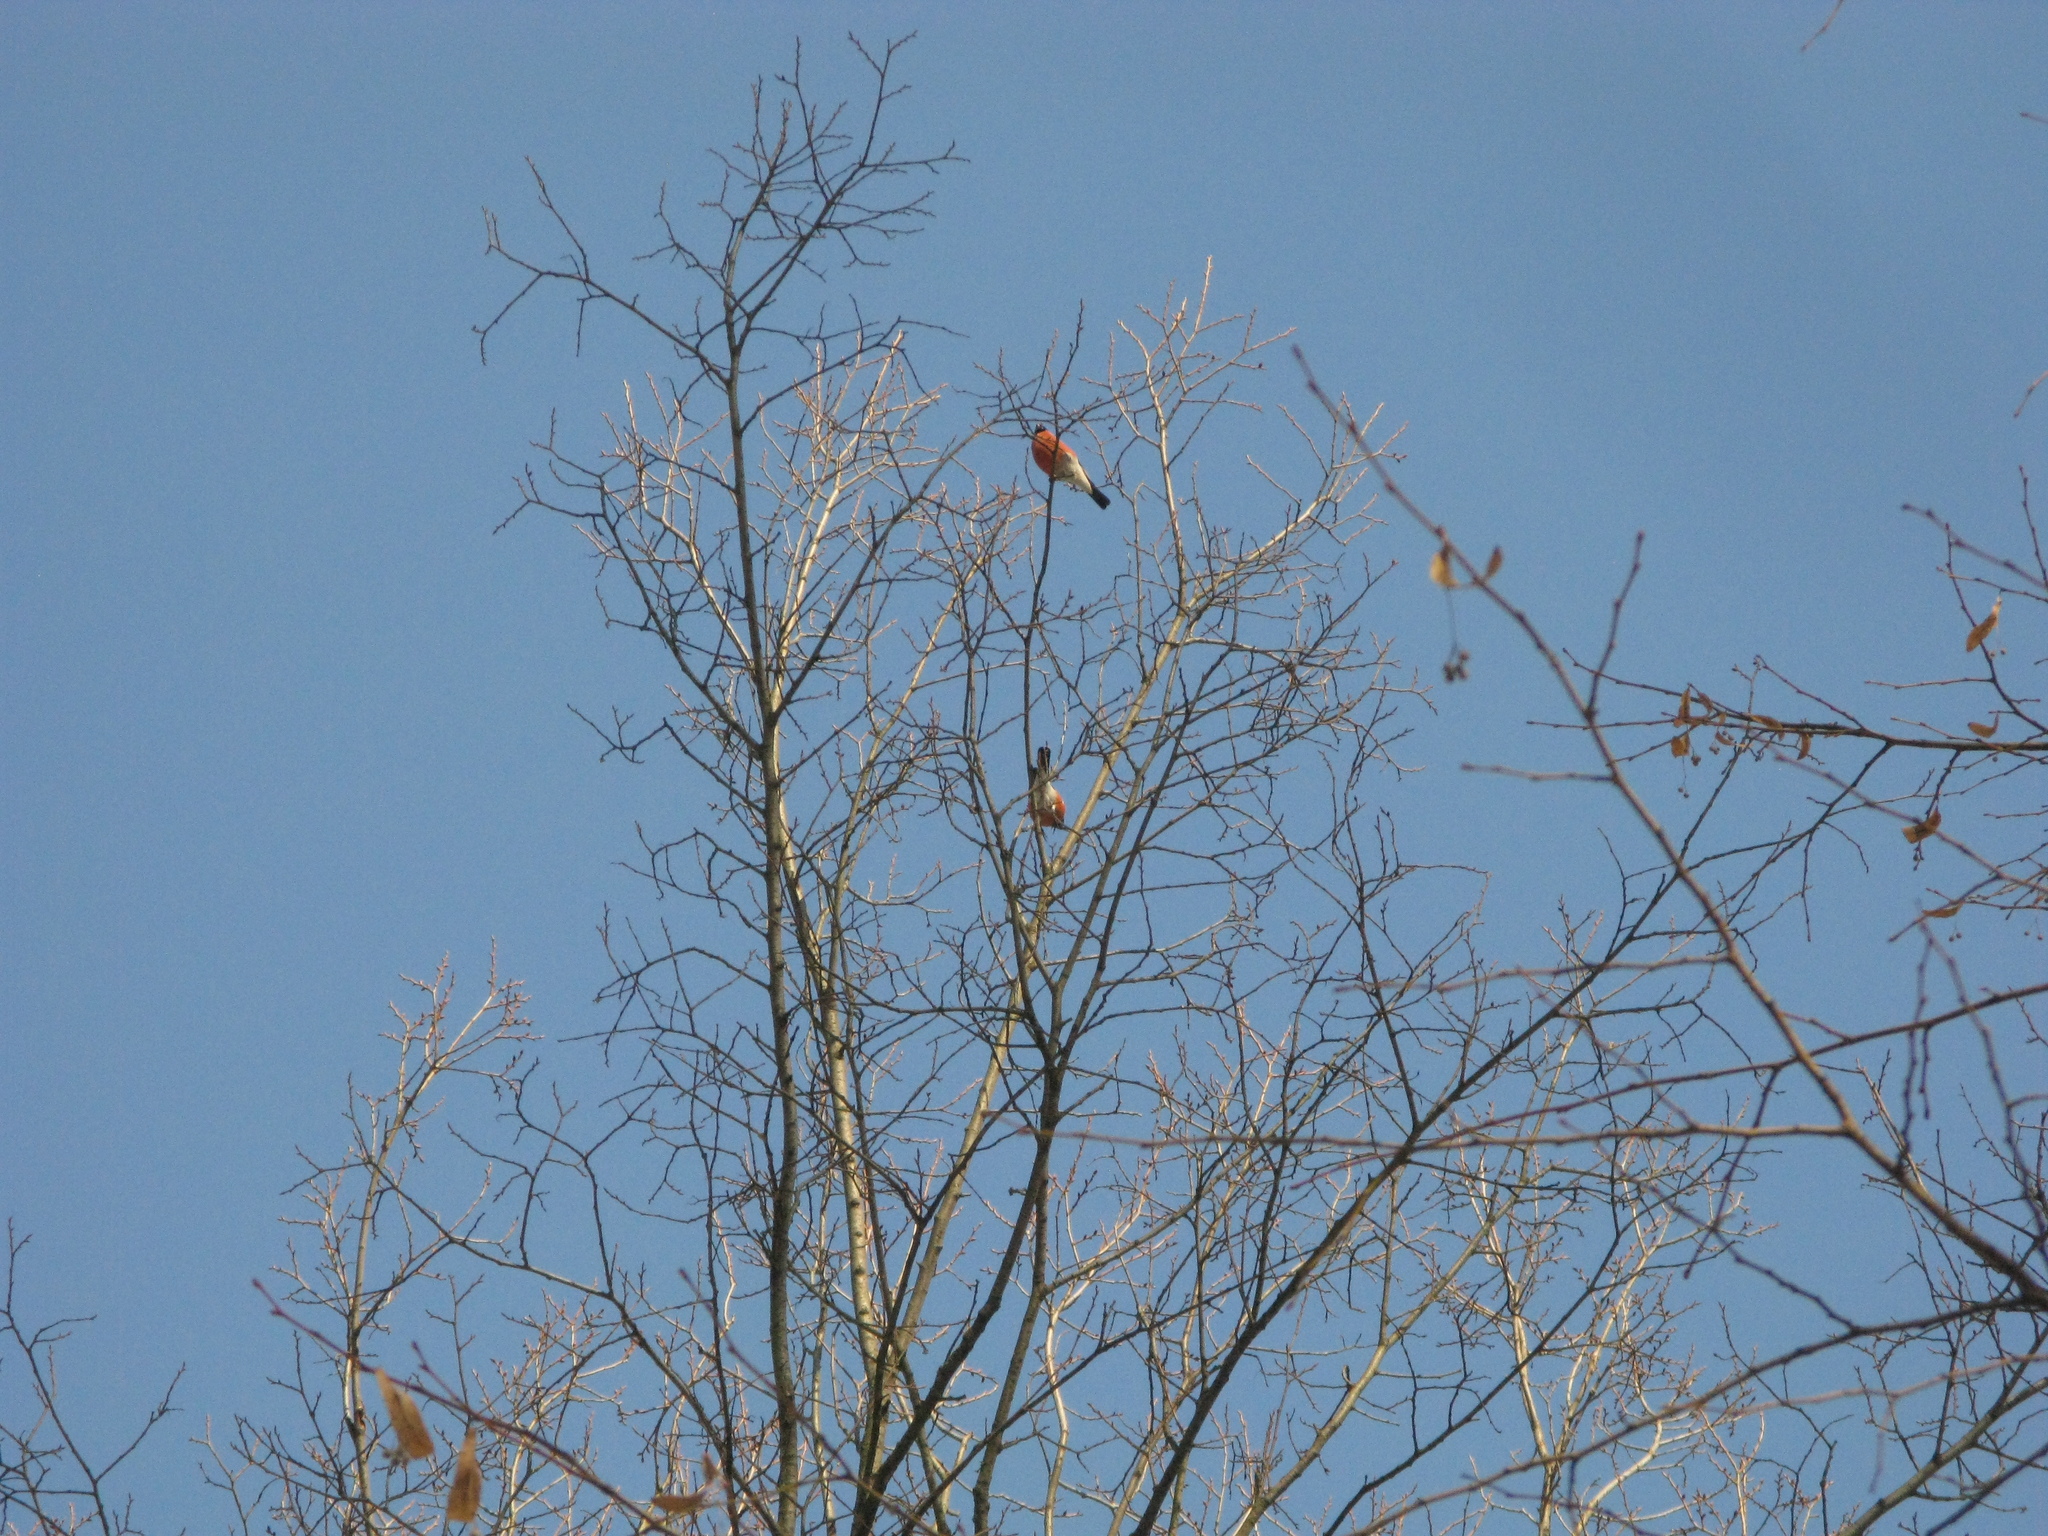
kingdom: Animalia
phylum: Chordata
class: Aves
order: Passeriformes
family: Fringillidae
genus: Pyrrhula
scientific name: Pyrrhula pyrrhula
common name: Eurasian bullfinch
